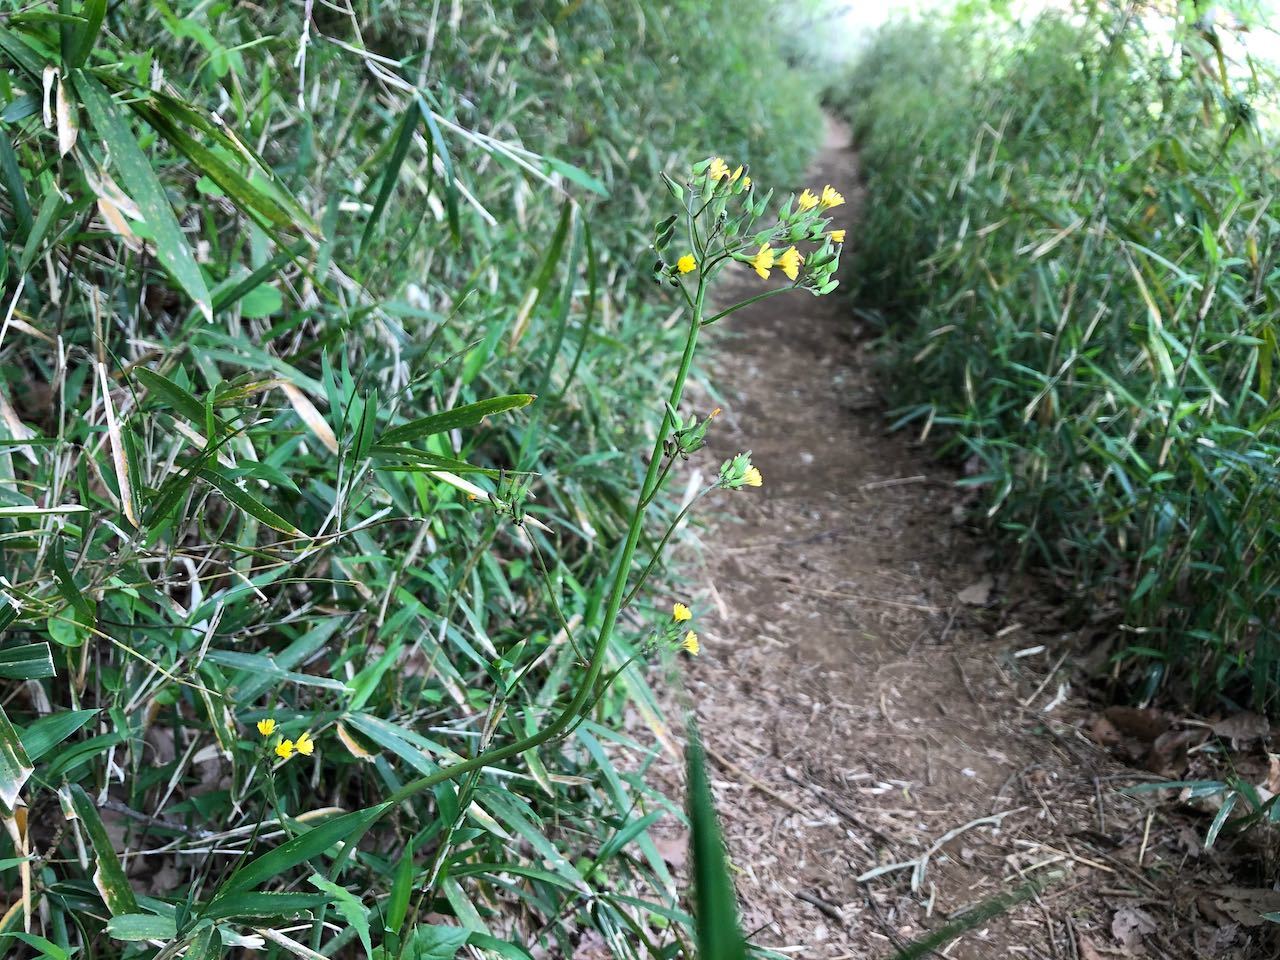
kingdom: Plantae
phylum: Tracheophyta
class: Magnoliopsida
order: Asterales
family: Asteraceae
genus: Youngia
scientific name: Youngia japonica
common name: Oriental false hawksbeard
